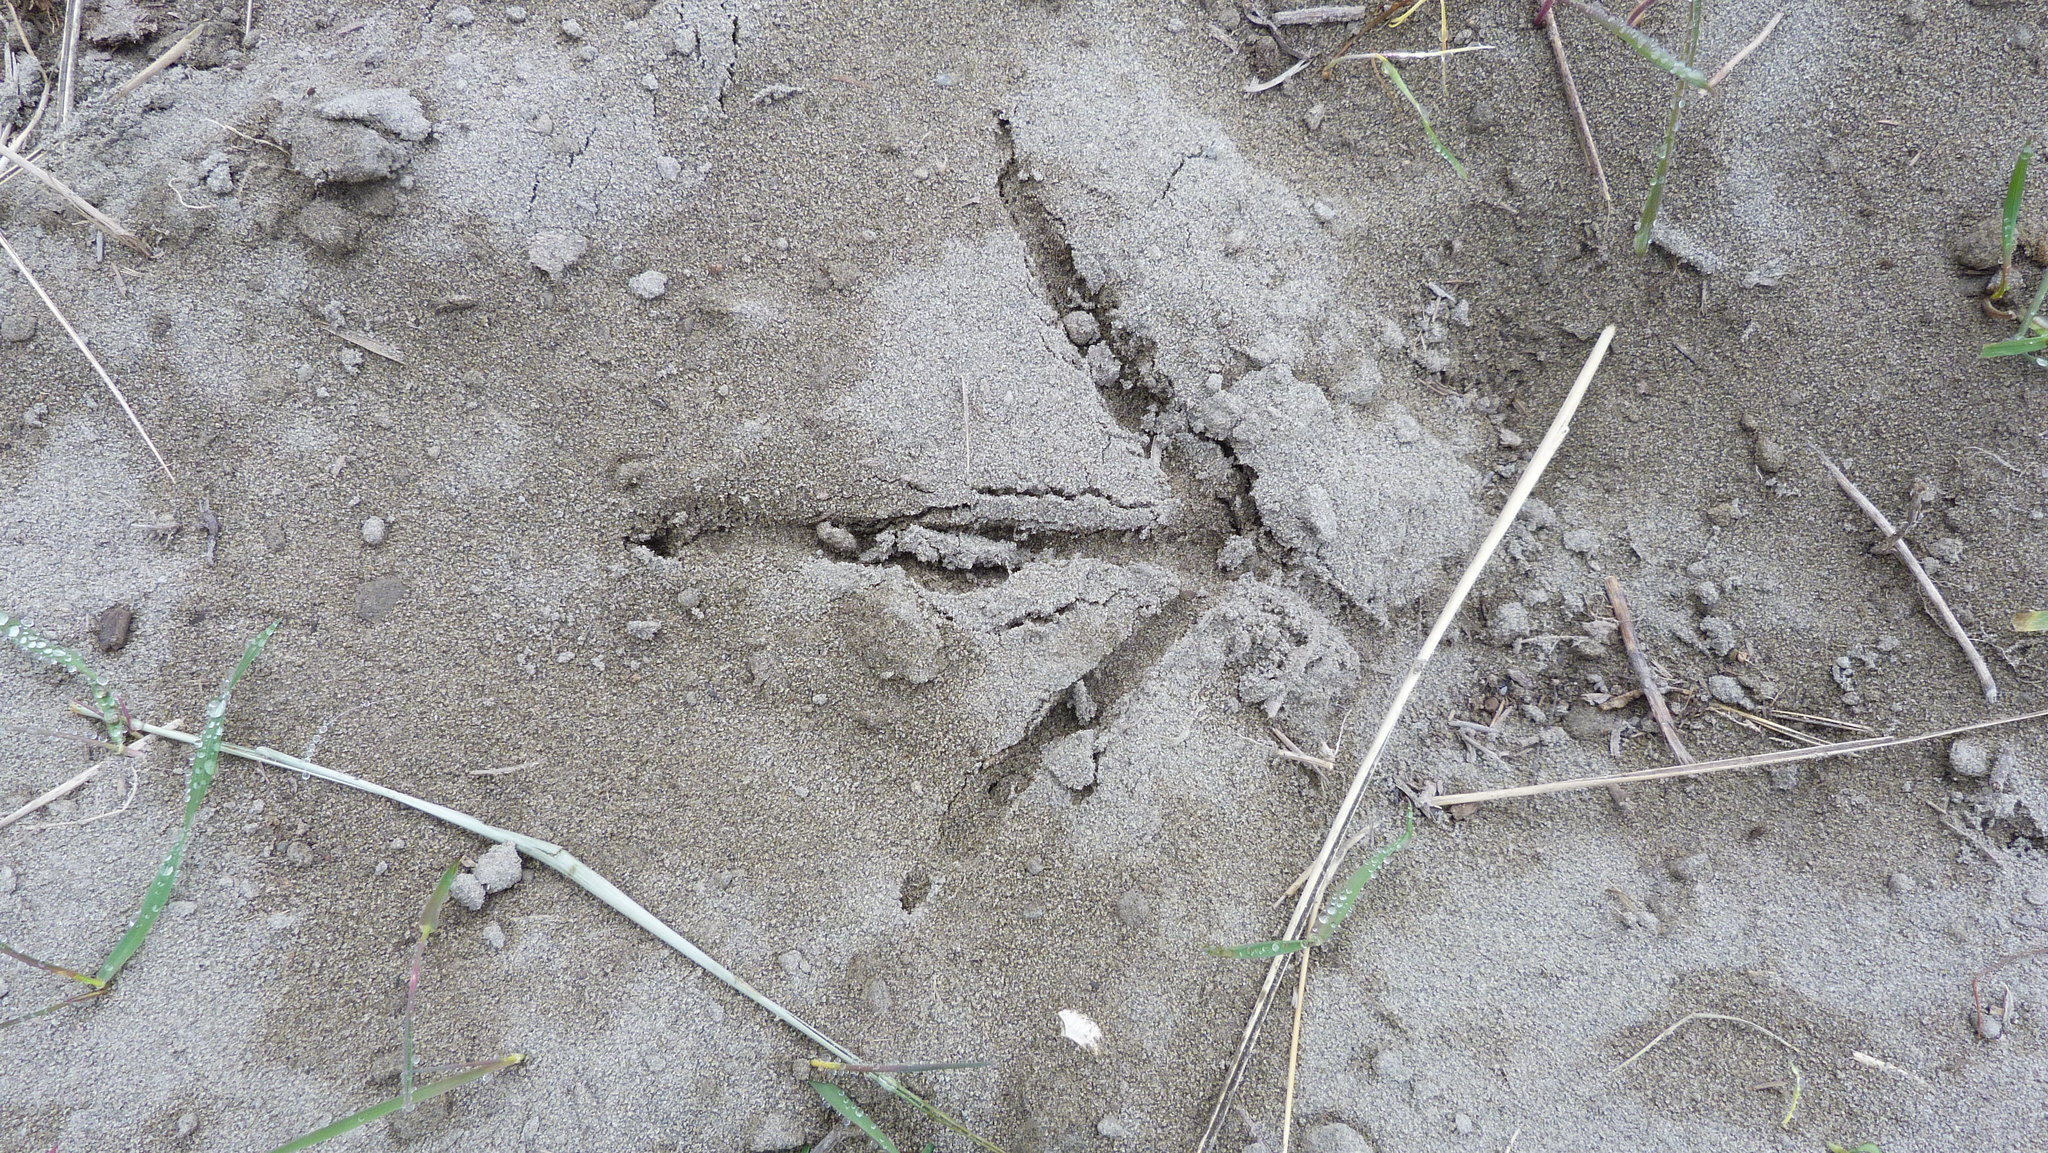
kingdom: Animalia
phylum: Chordata
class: Aves
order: Gruiformes
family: Rallidae
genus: Porphyrio
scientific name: Porphyrio melanotus
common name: Australasian swamphen
